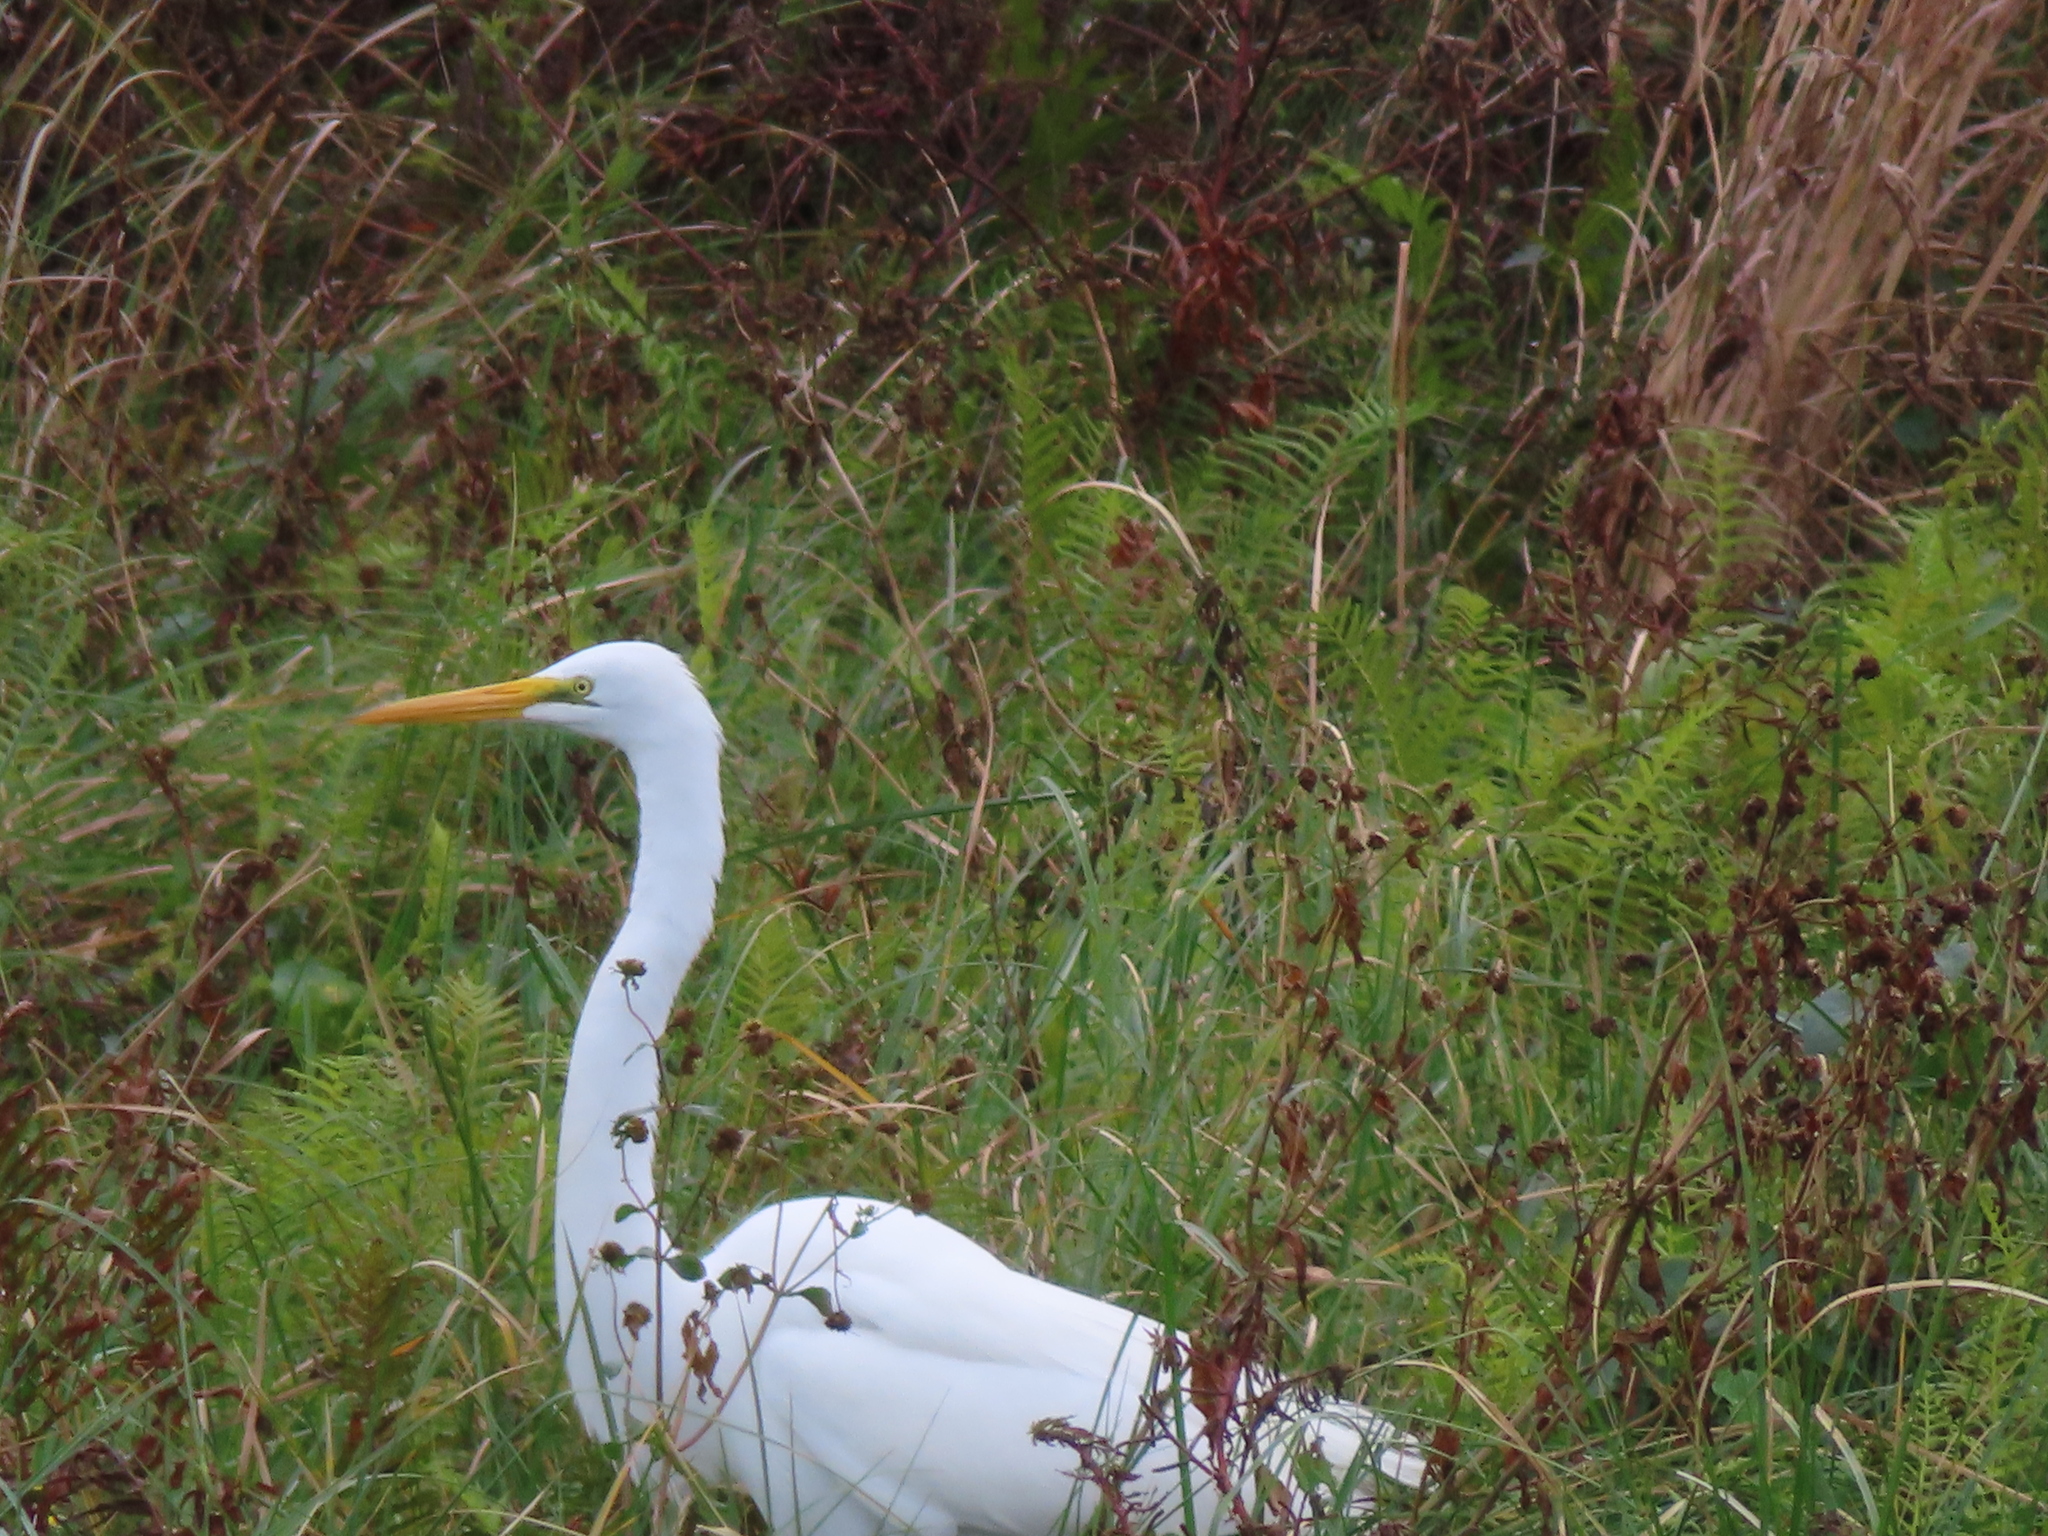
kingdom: Animalia
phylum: Chordata
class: Aves
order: Pelecaniformes
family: Ardeidae
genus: Ardea
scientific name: Ardea alba
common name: Great egret
